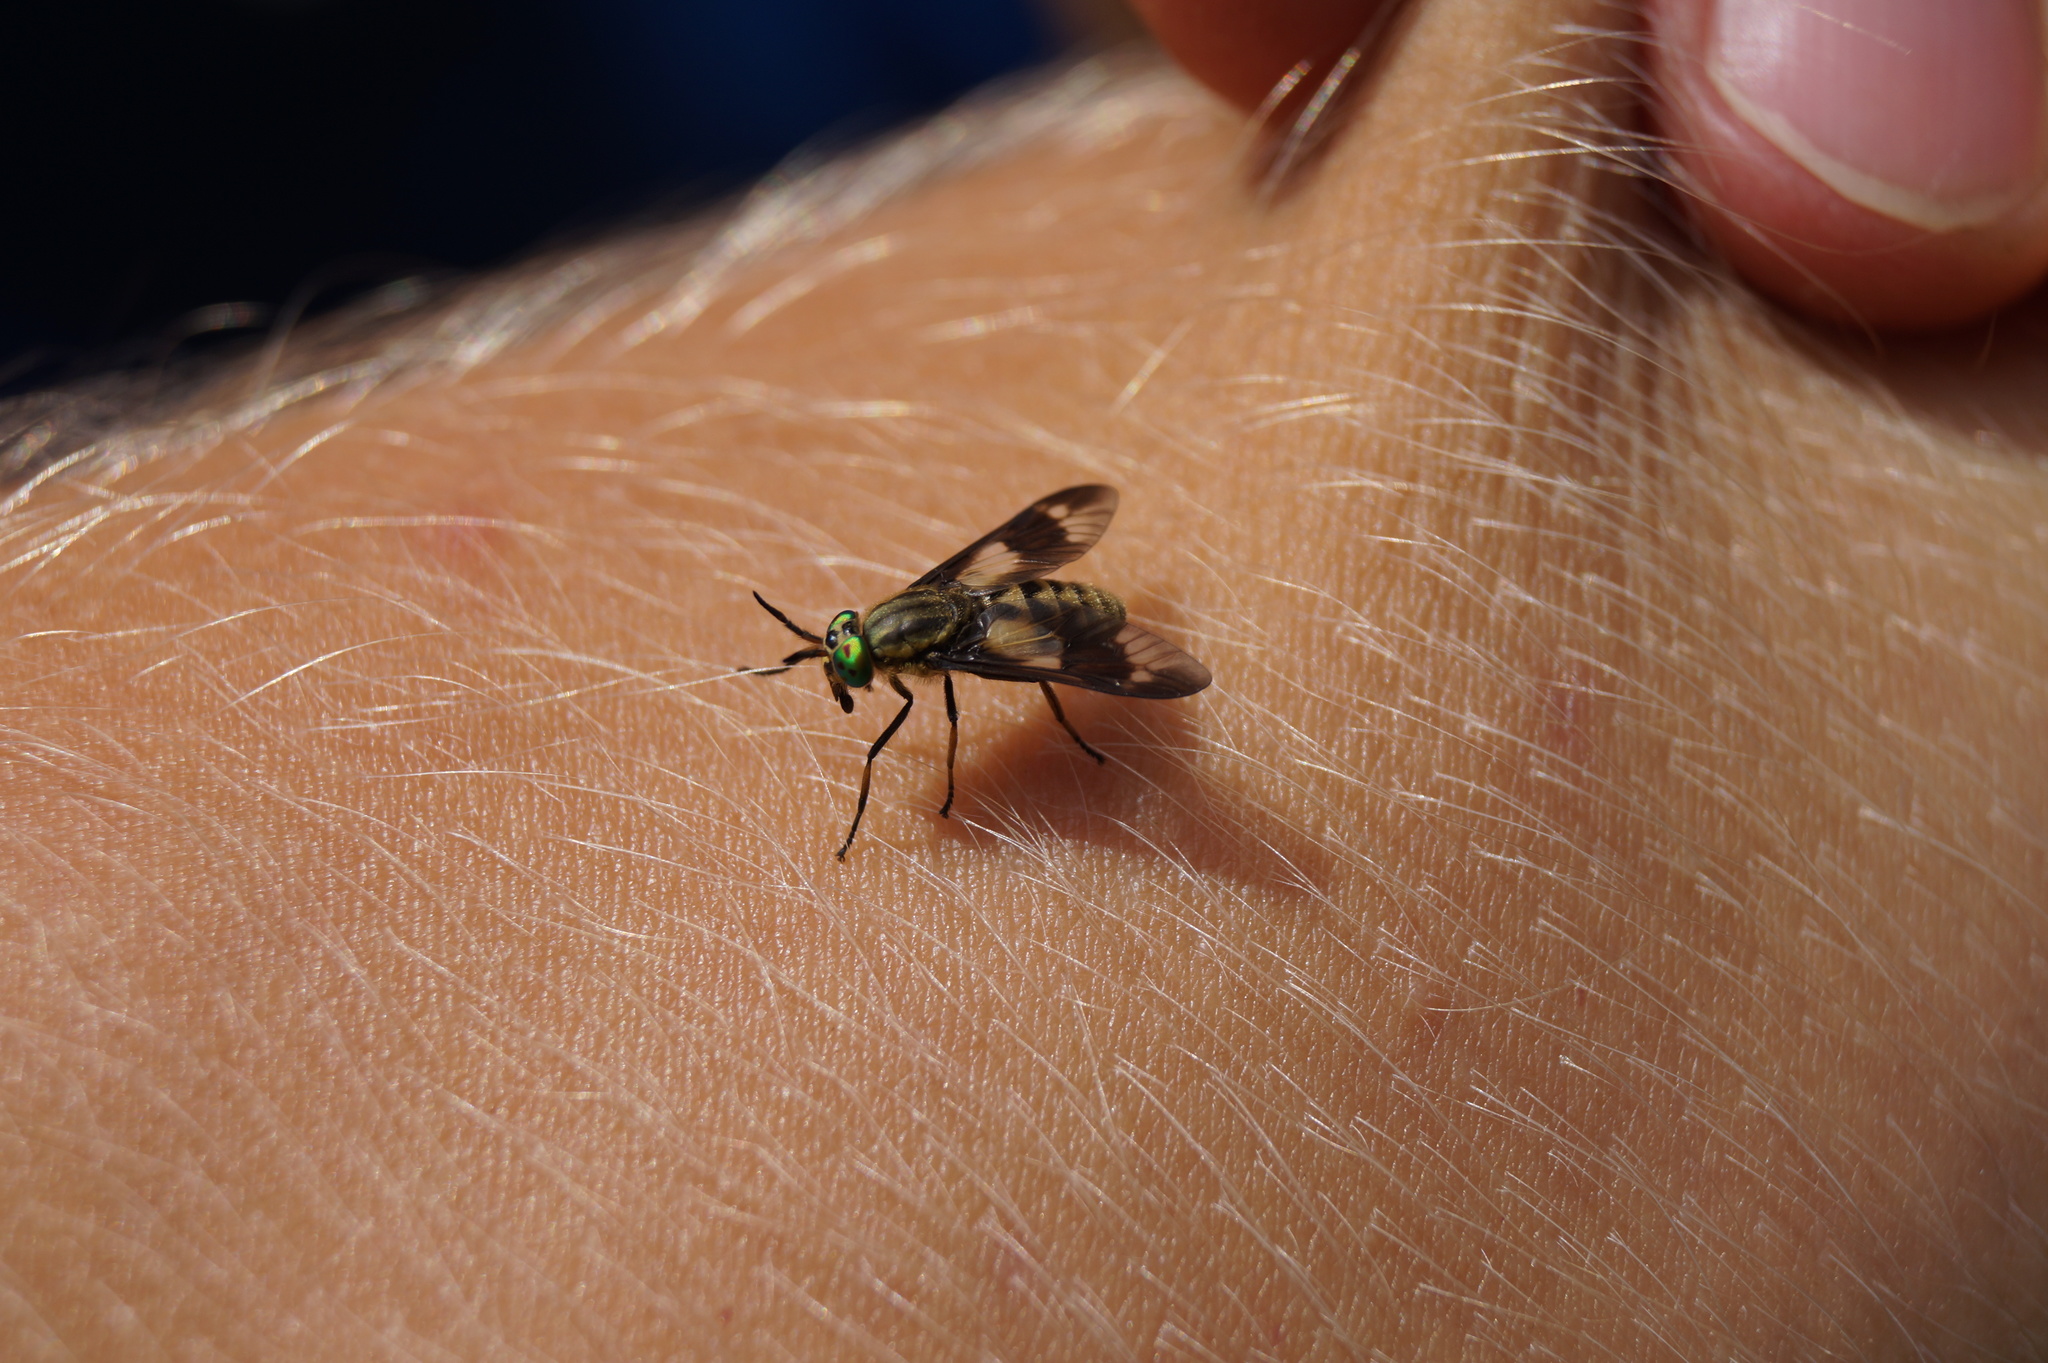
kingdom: Animalia
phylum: Arthropoda
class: Insecta
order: Diptera
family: Tabanidae
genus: Chrysops
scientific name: Chrysops relictus
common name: Twin-lobed deerfly
